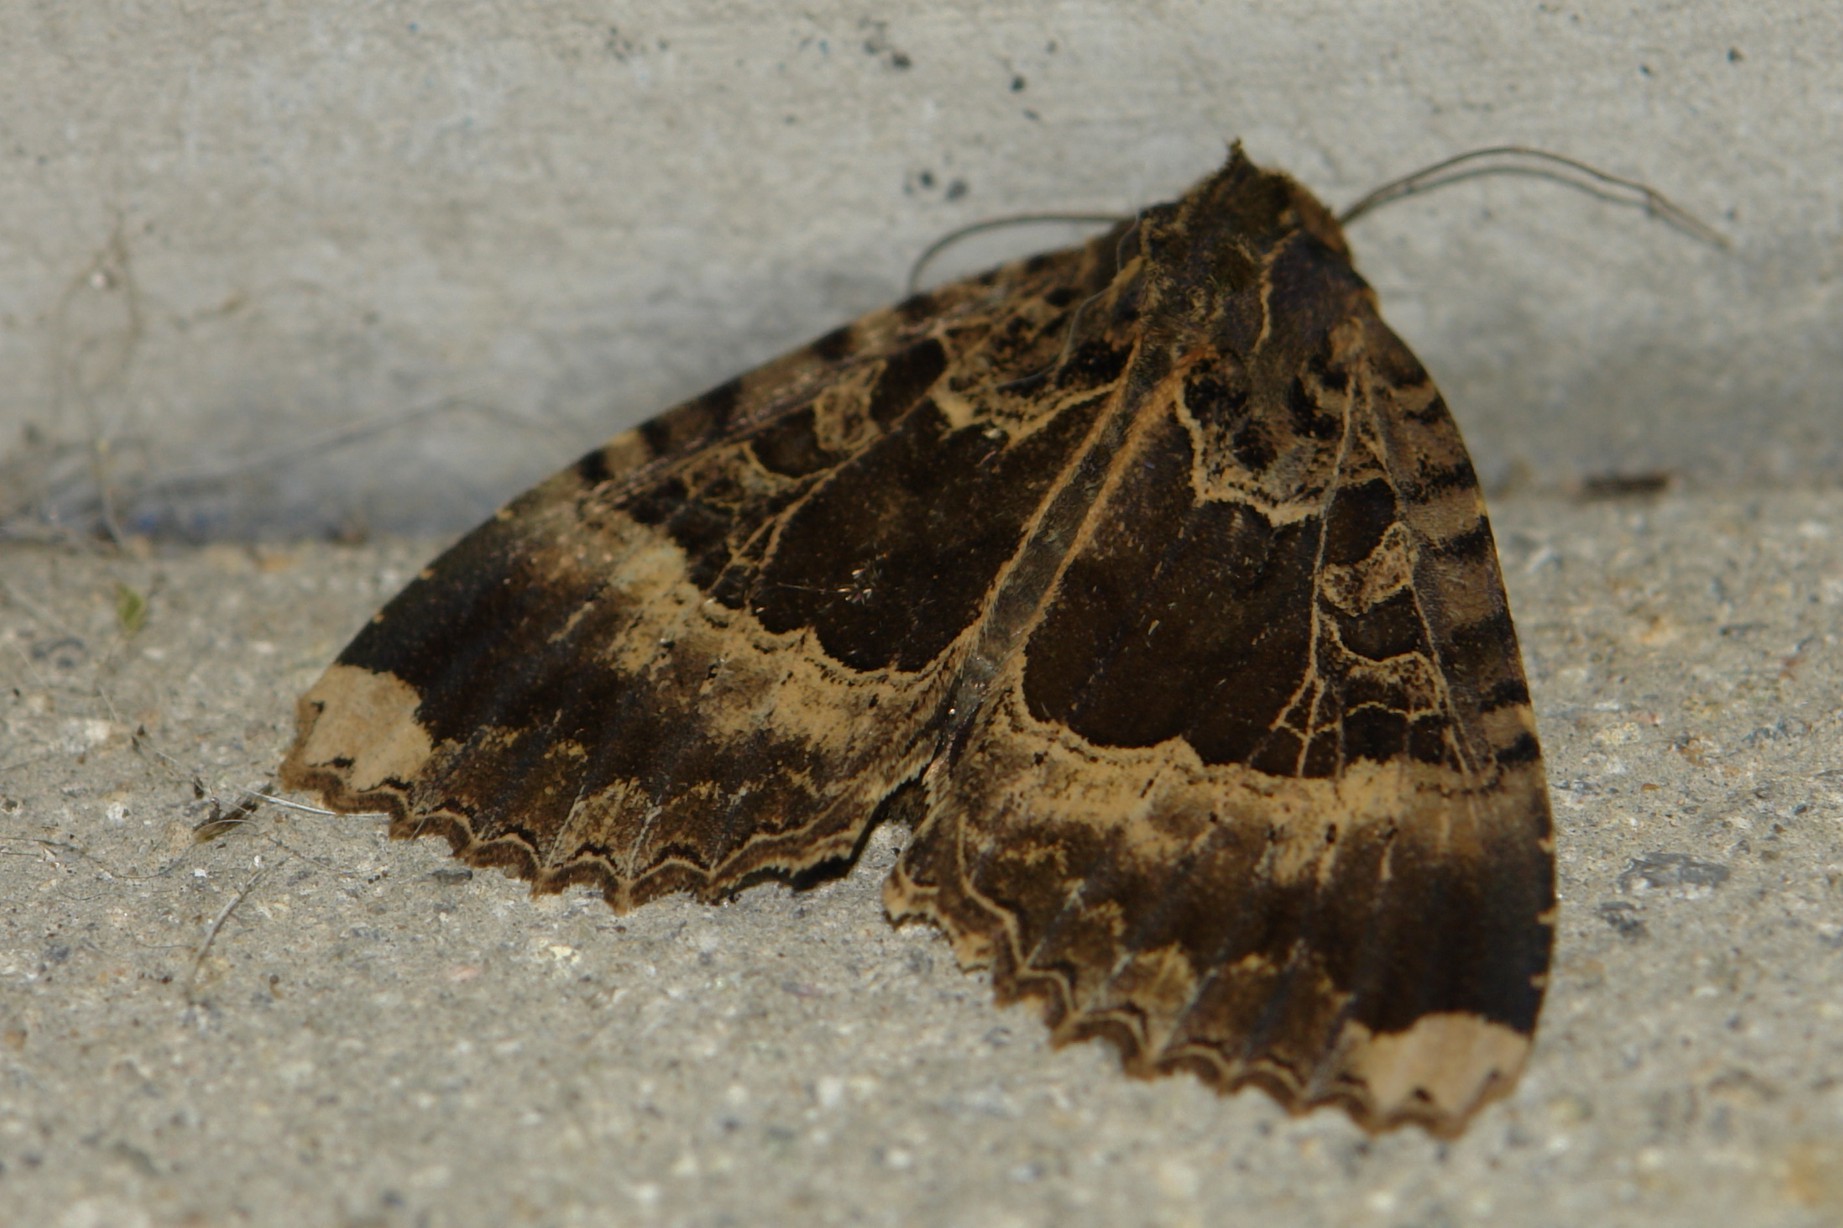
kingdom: Animalia
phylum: Arthropoda
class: Insecta
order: Lepidoptera
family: Noctuidae
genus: Mormo
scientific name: Mormo maura
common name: Old lady
